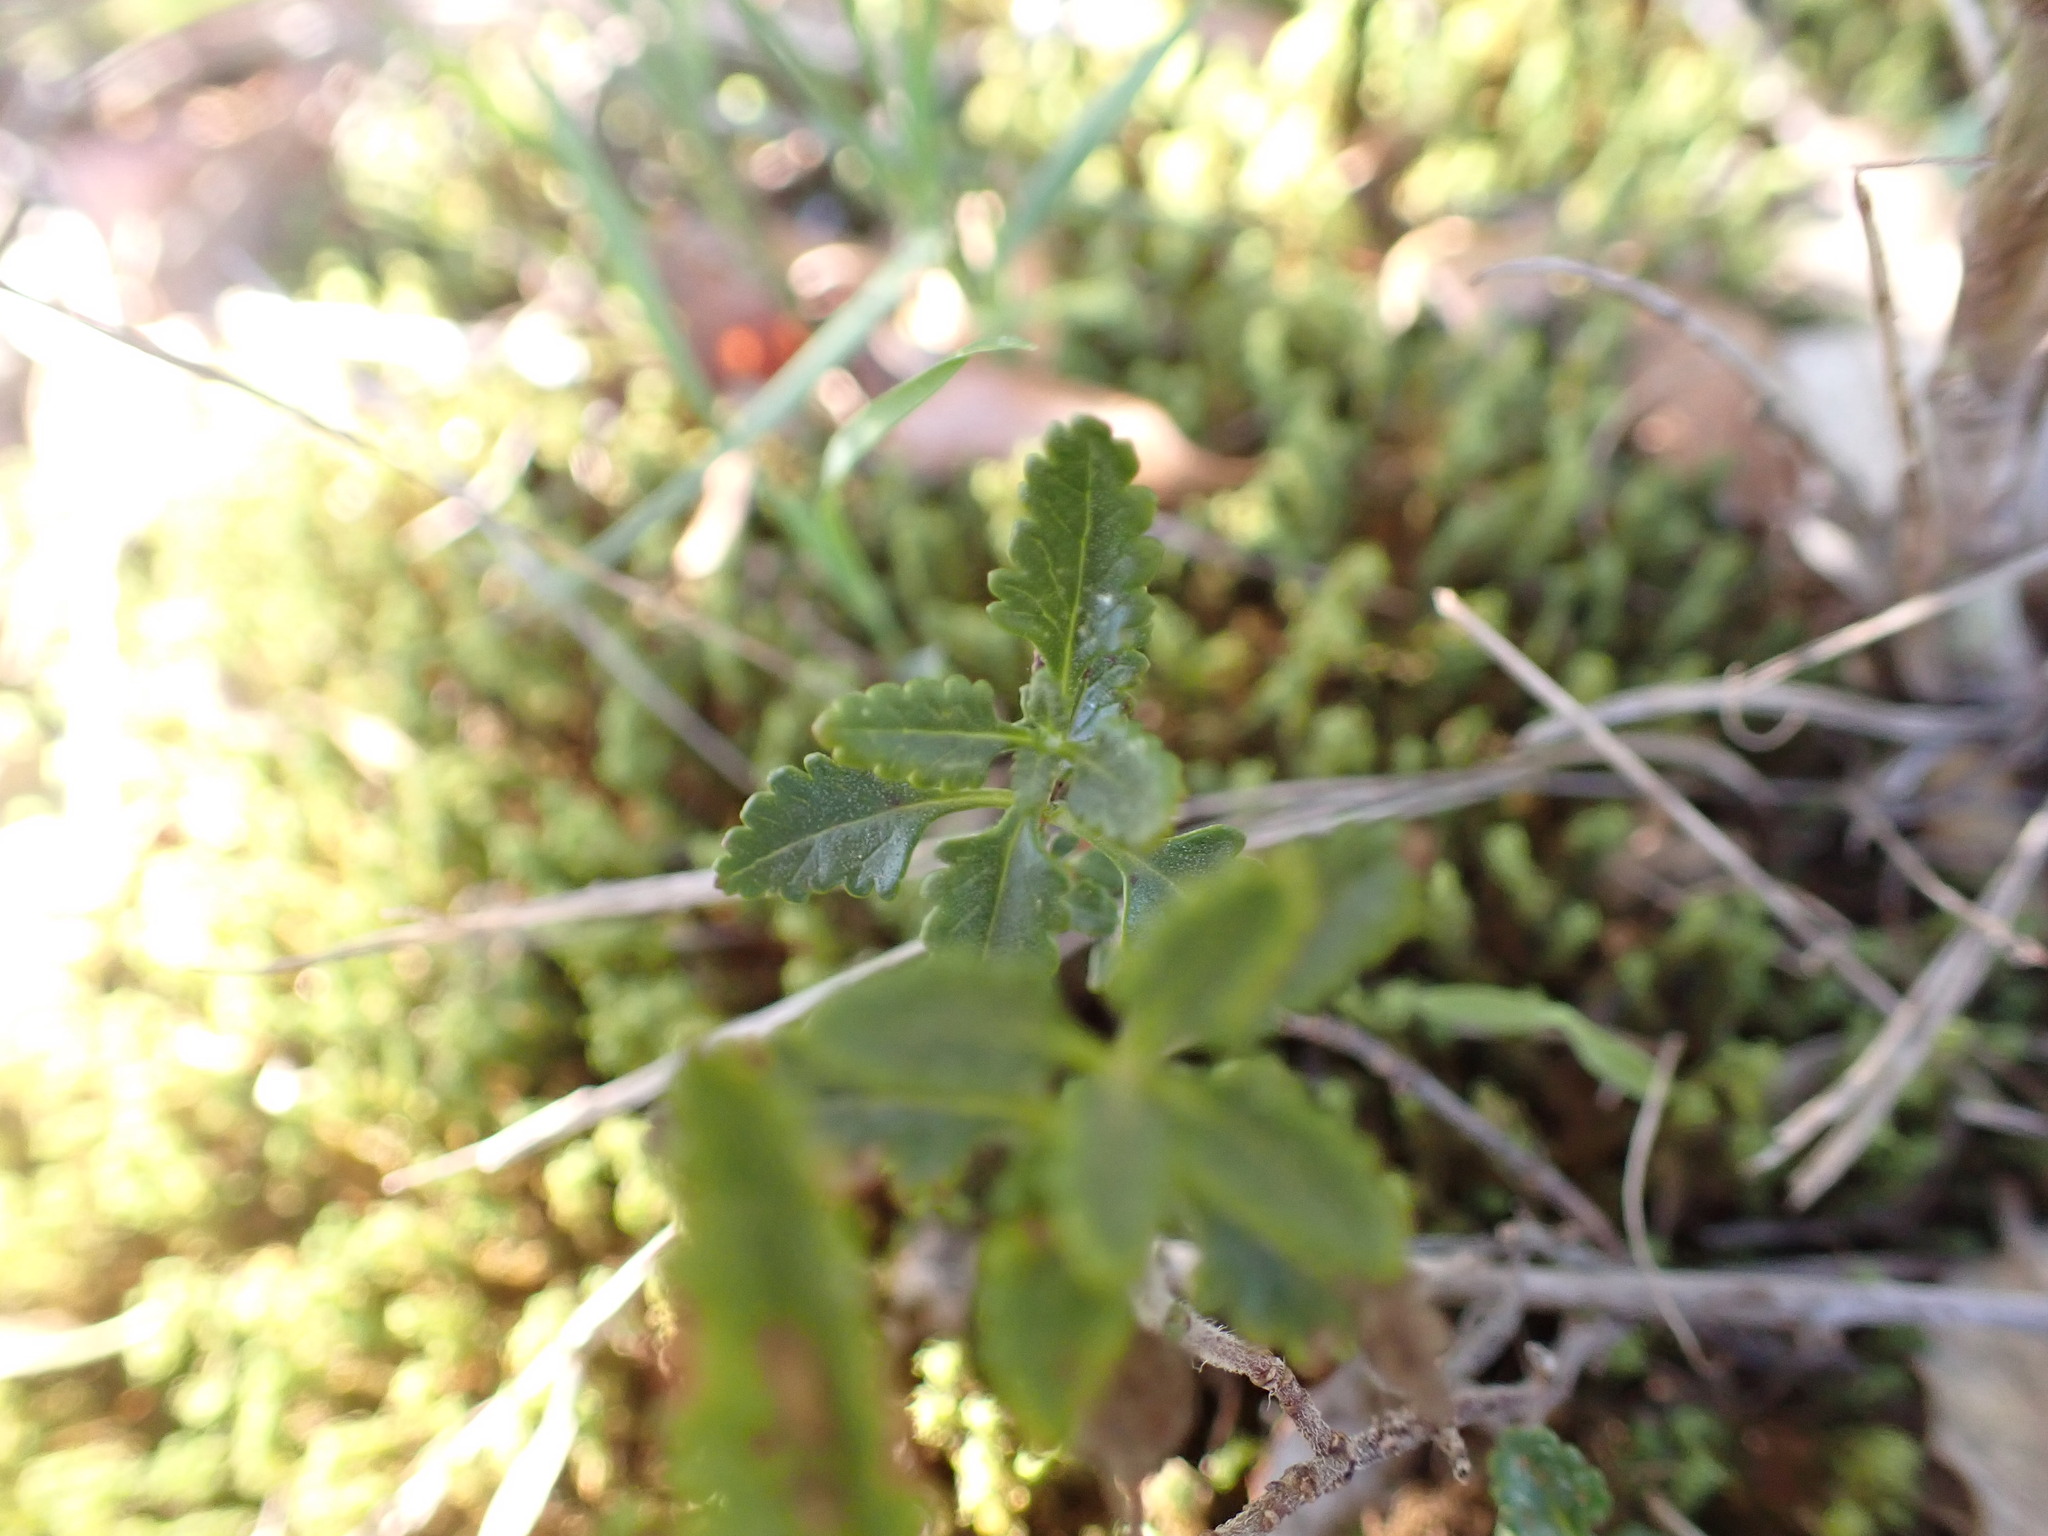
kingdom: Plantae
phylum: Tracheophyta
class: Magnoliopsida
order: Lamiales
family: Lamiaceae
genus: Teucrium
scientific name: Teucrium chamaedrys
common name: Wall germander
